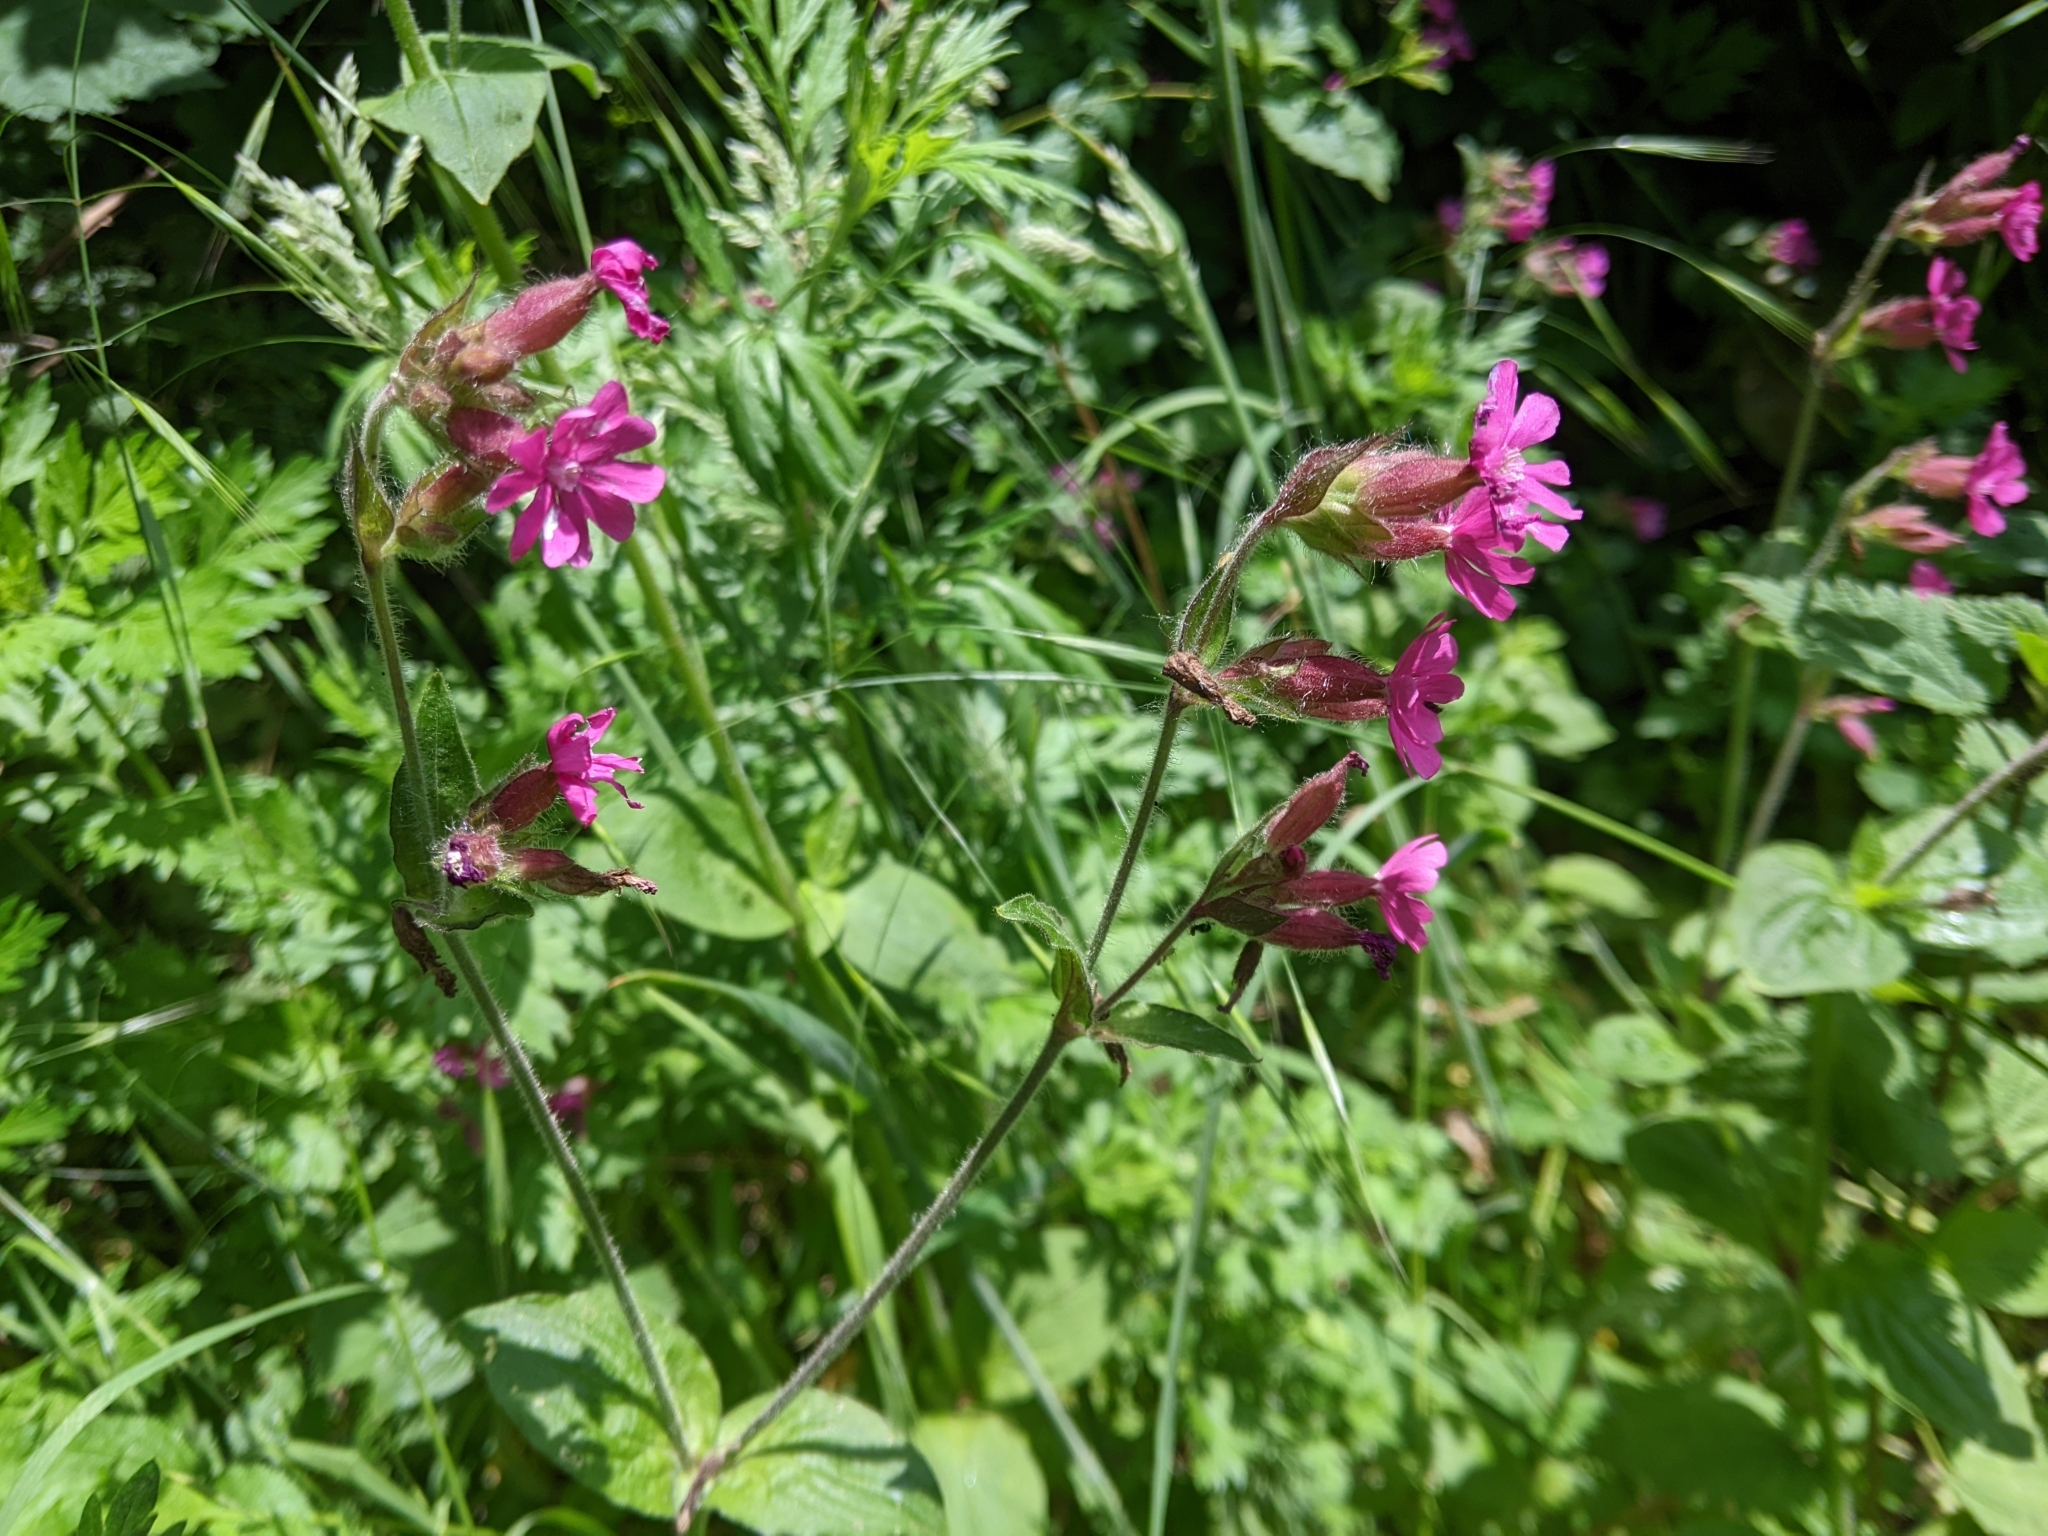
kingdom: Plantae
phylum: Tracheophyta
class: Magnoliopsida
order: Caryophyllales
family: Caryophyllaceae
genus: Silene
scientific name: Silene dioica
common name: Red campion
